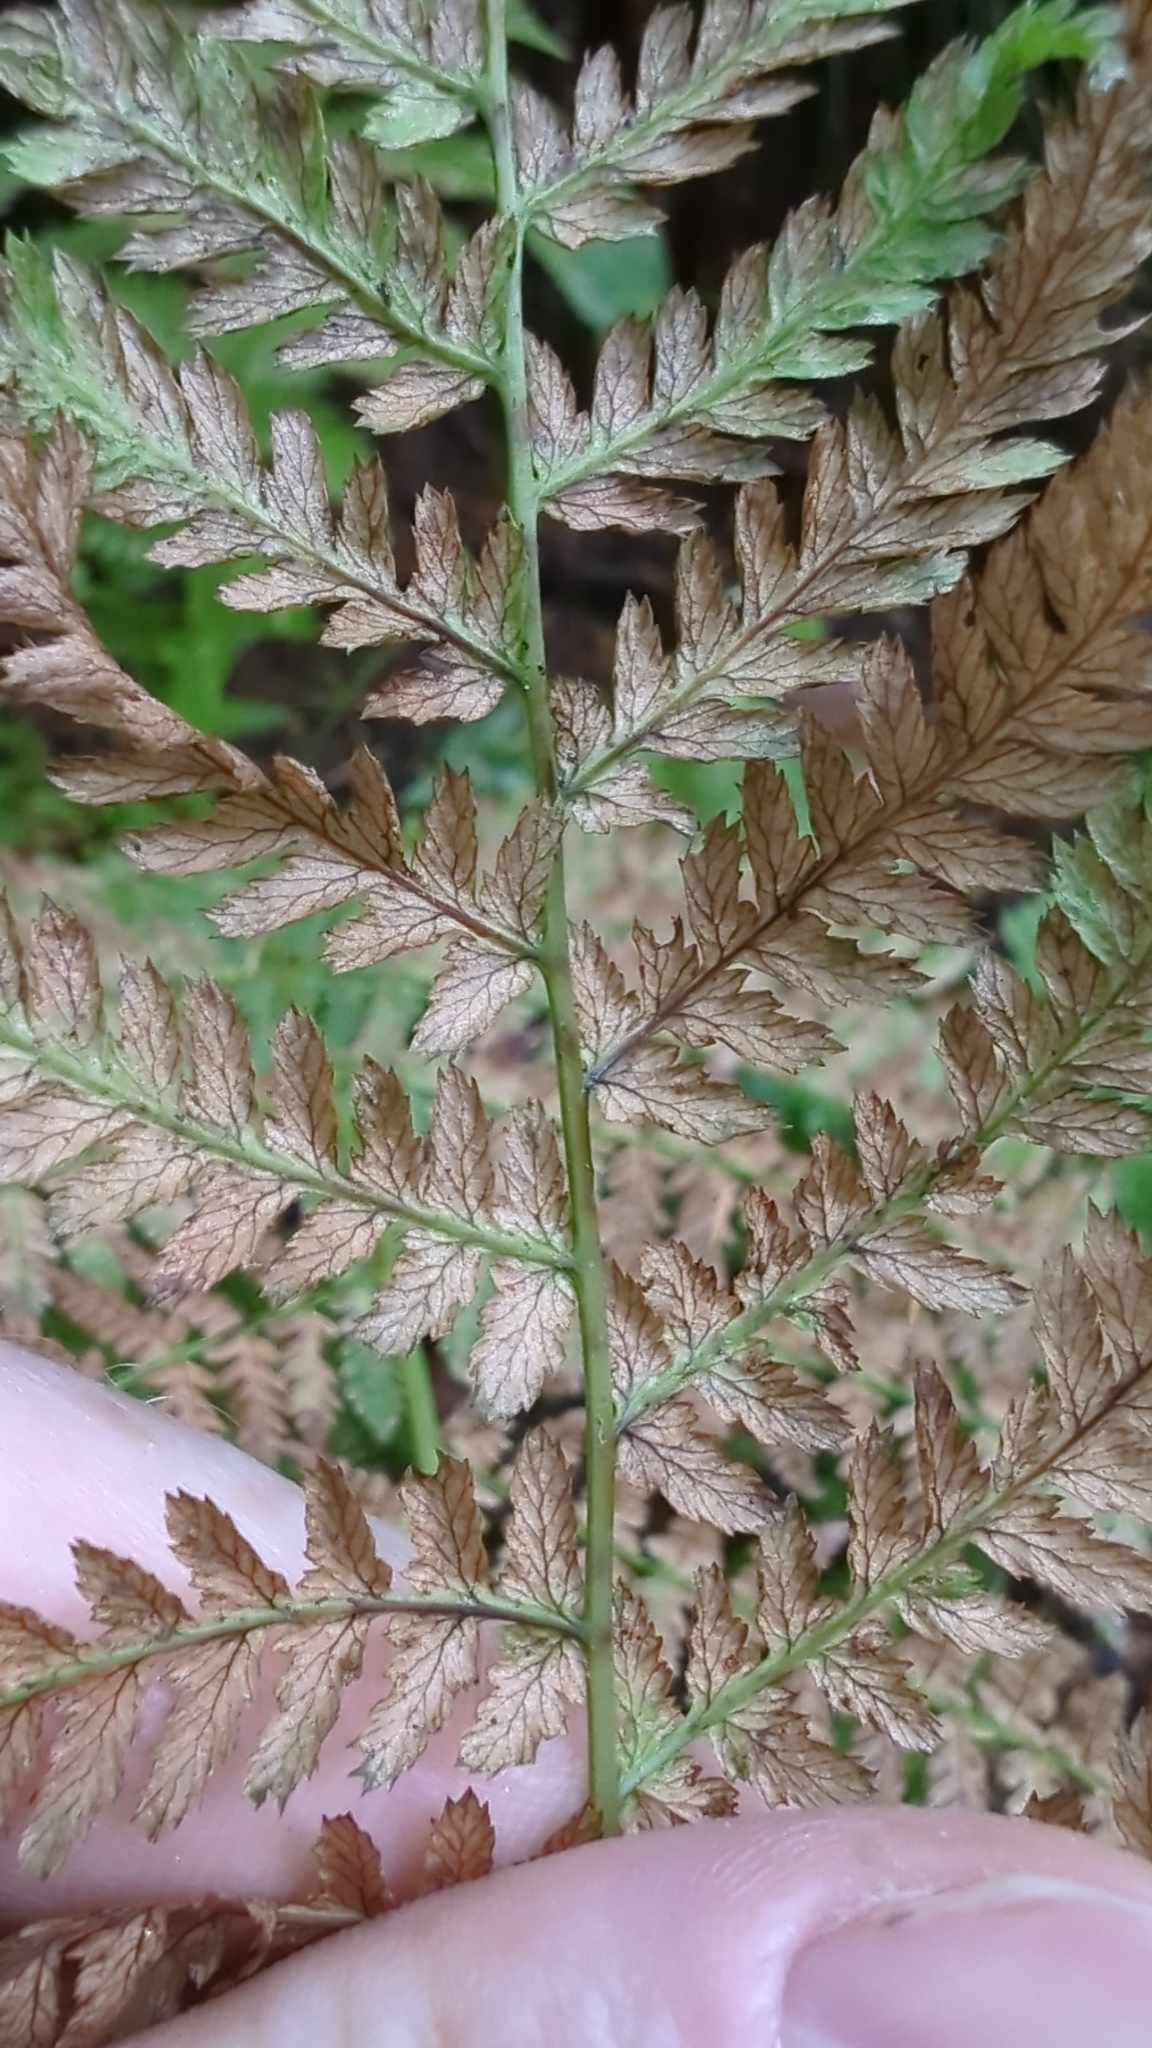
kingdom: Plantae
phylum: Tracheophyta
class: Polypodiopsida
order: Polypodiales
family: Athyriaceae
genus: Athyrium
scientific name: Athyrium filix-femina
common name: Lady fern
